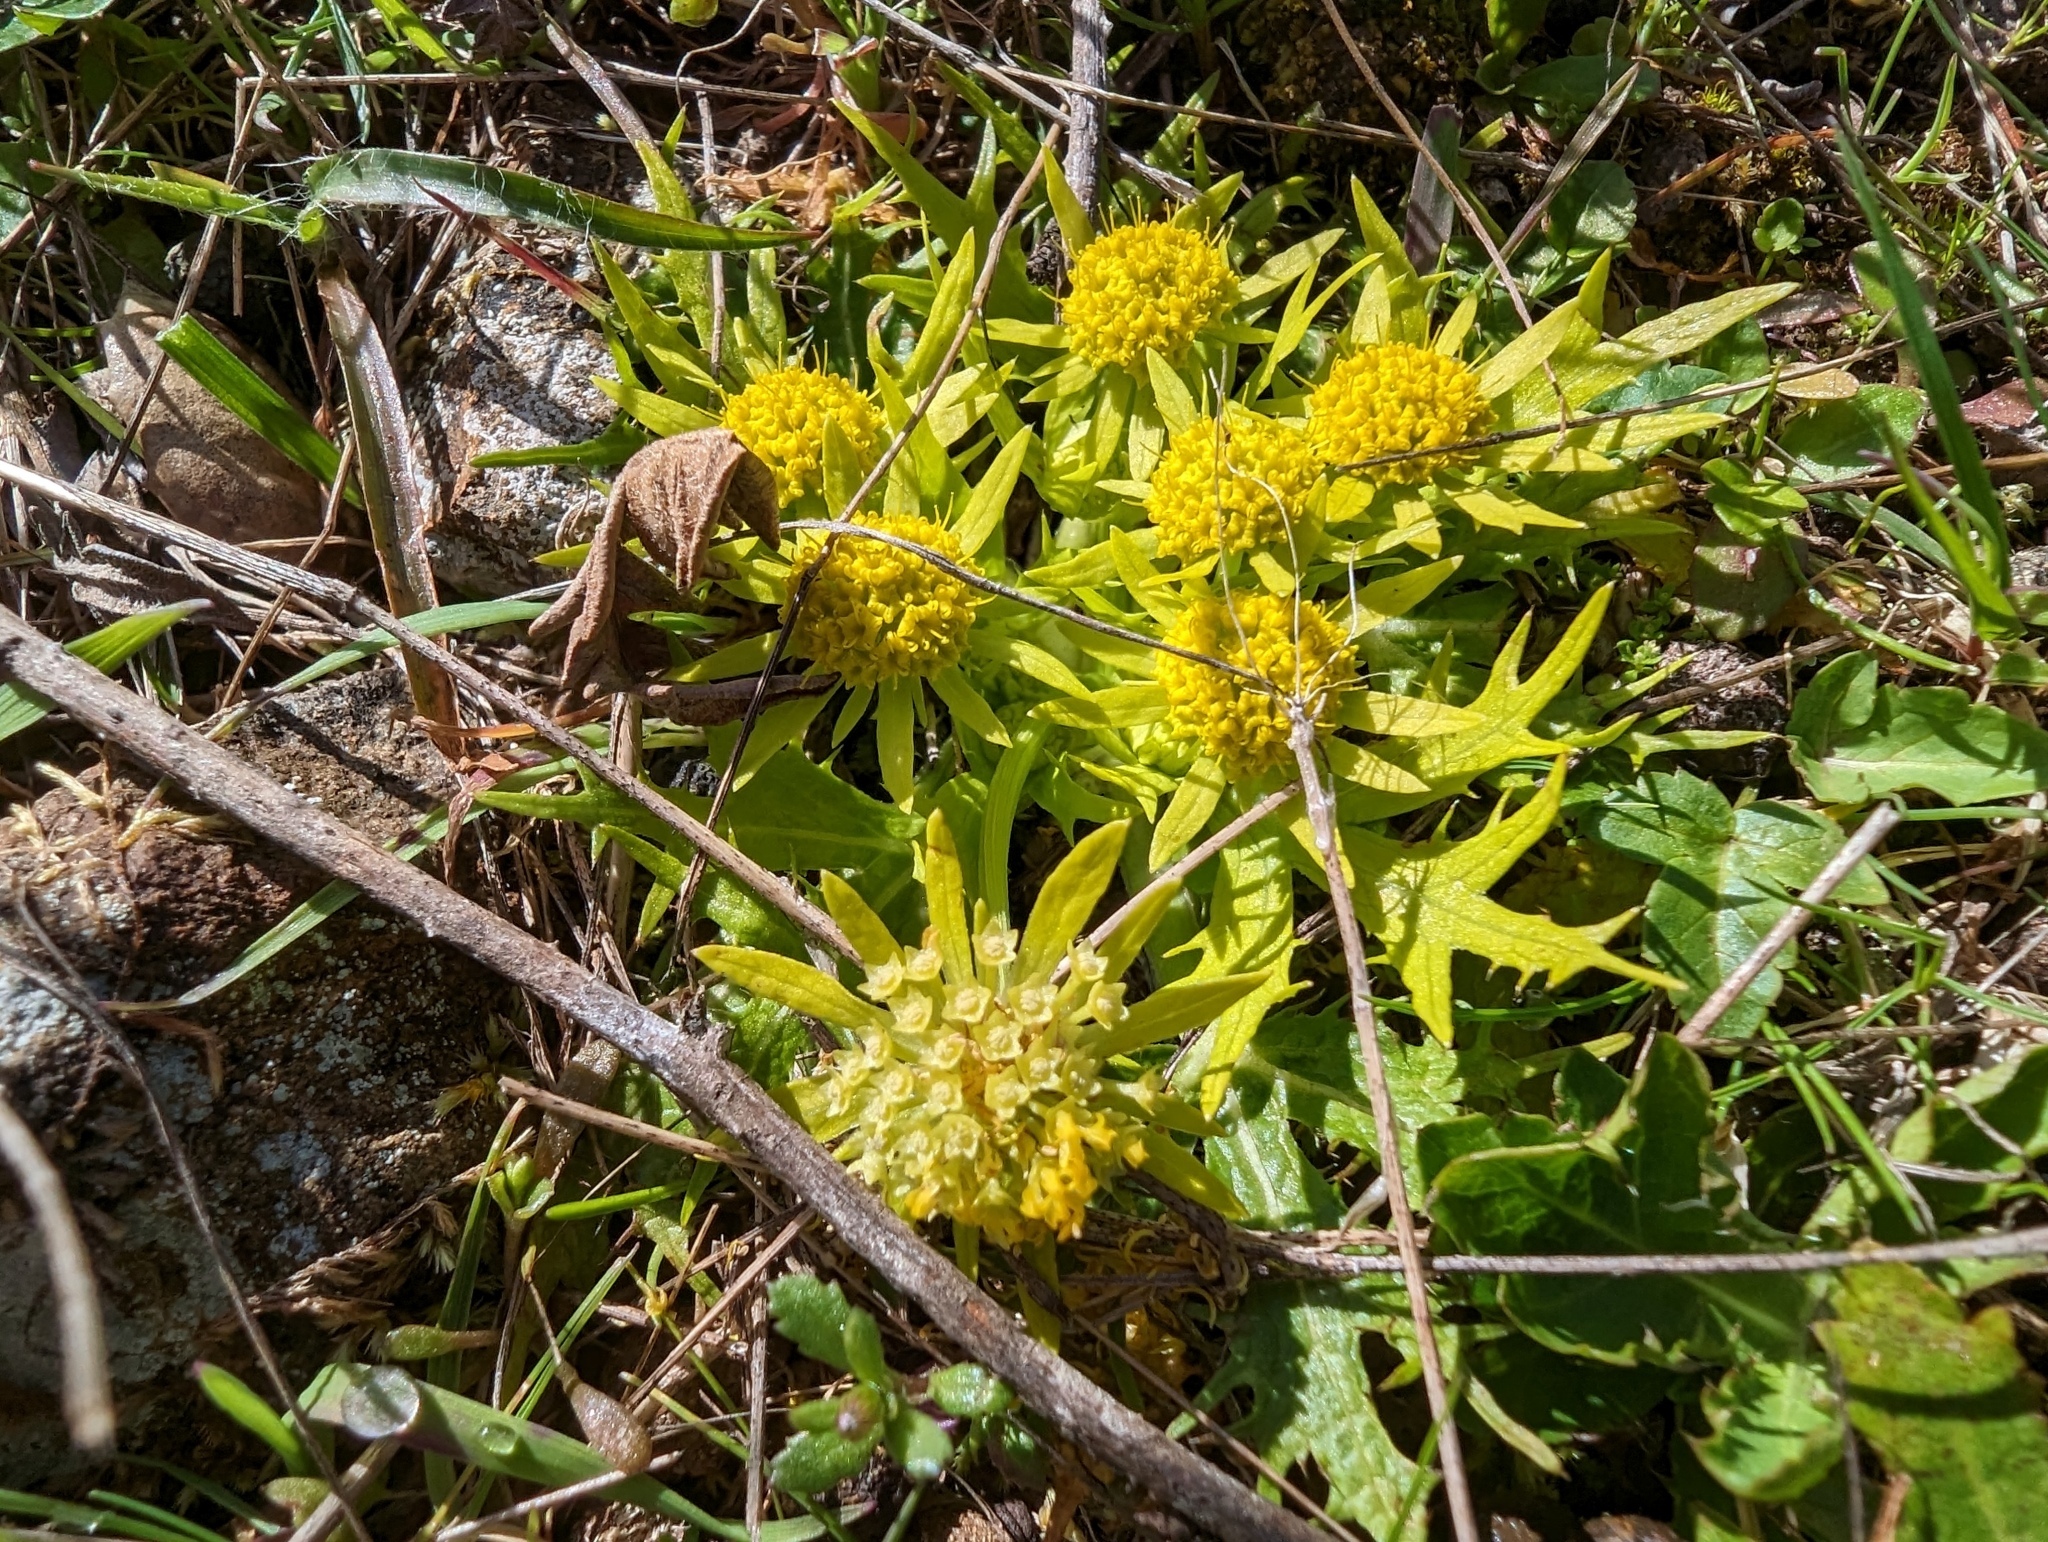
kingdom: Plantae
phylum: Tracheophyta
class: Magnoliopsida
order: Apiales
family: Apiaceae
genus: Sanicula
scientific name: Sanicula arctopoides
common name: Footsteps-of-spring
